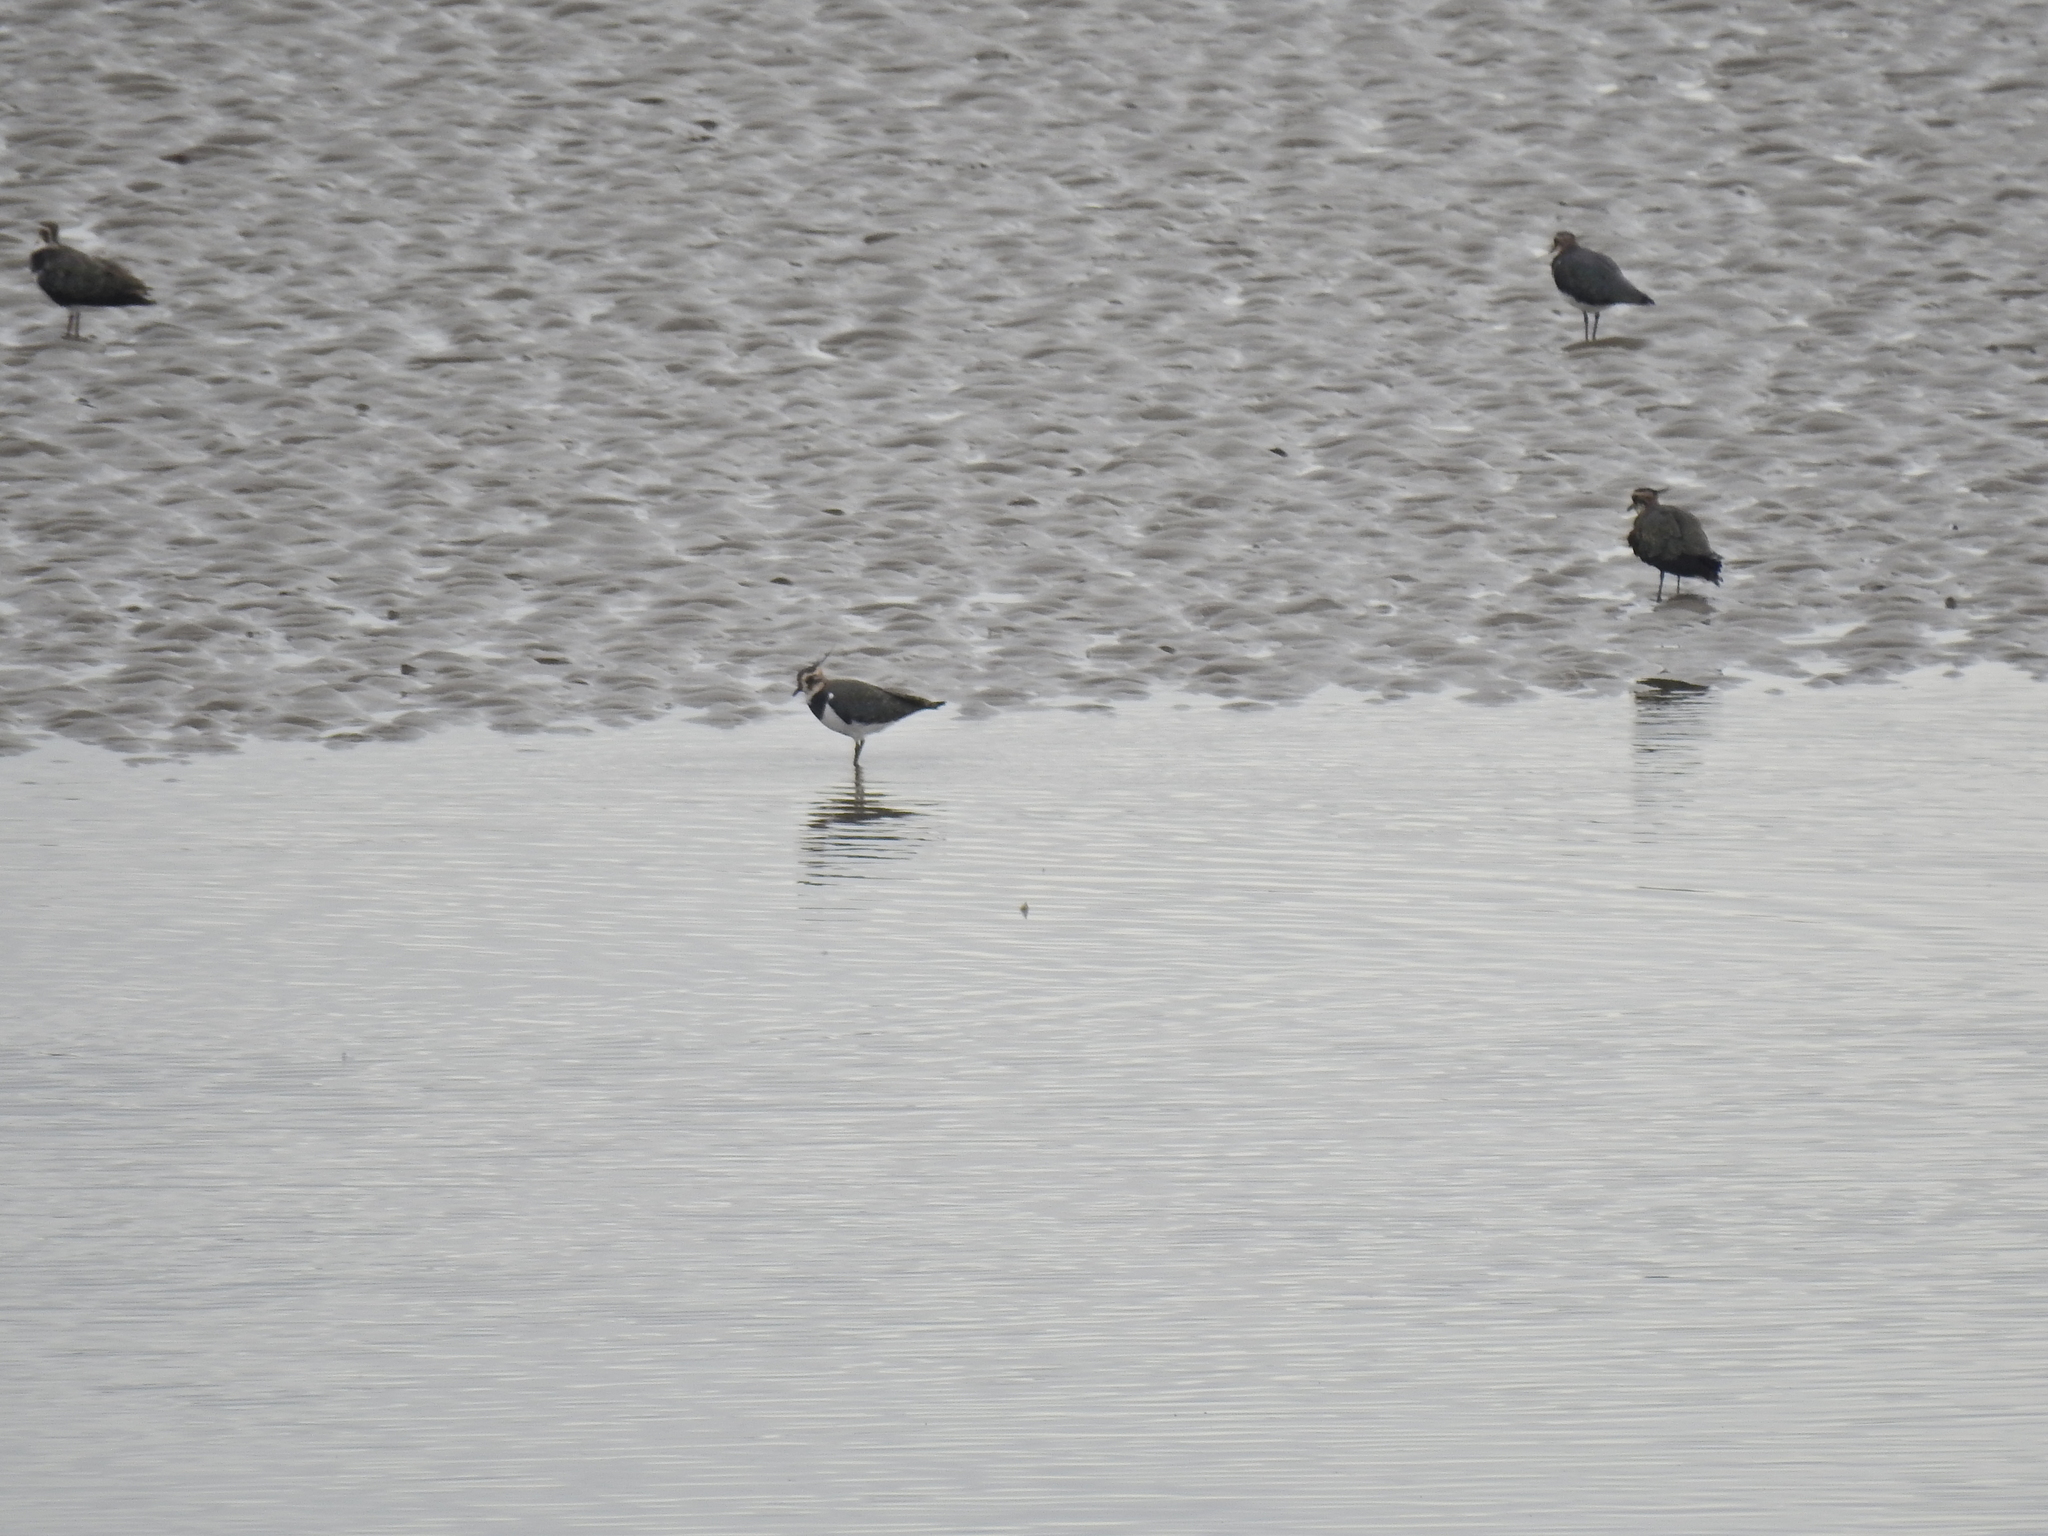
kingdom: Animalia
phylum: Chordata
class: Aves
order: Charadriiformes
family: Charadriidae
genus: Vanellus
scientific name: Vanellus vanellus
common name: Northern lapwing
